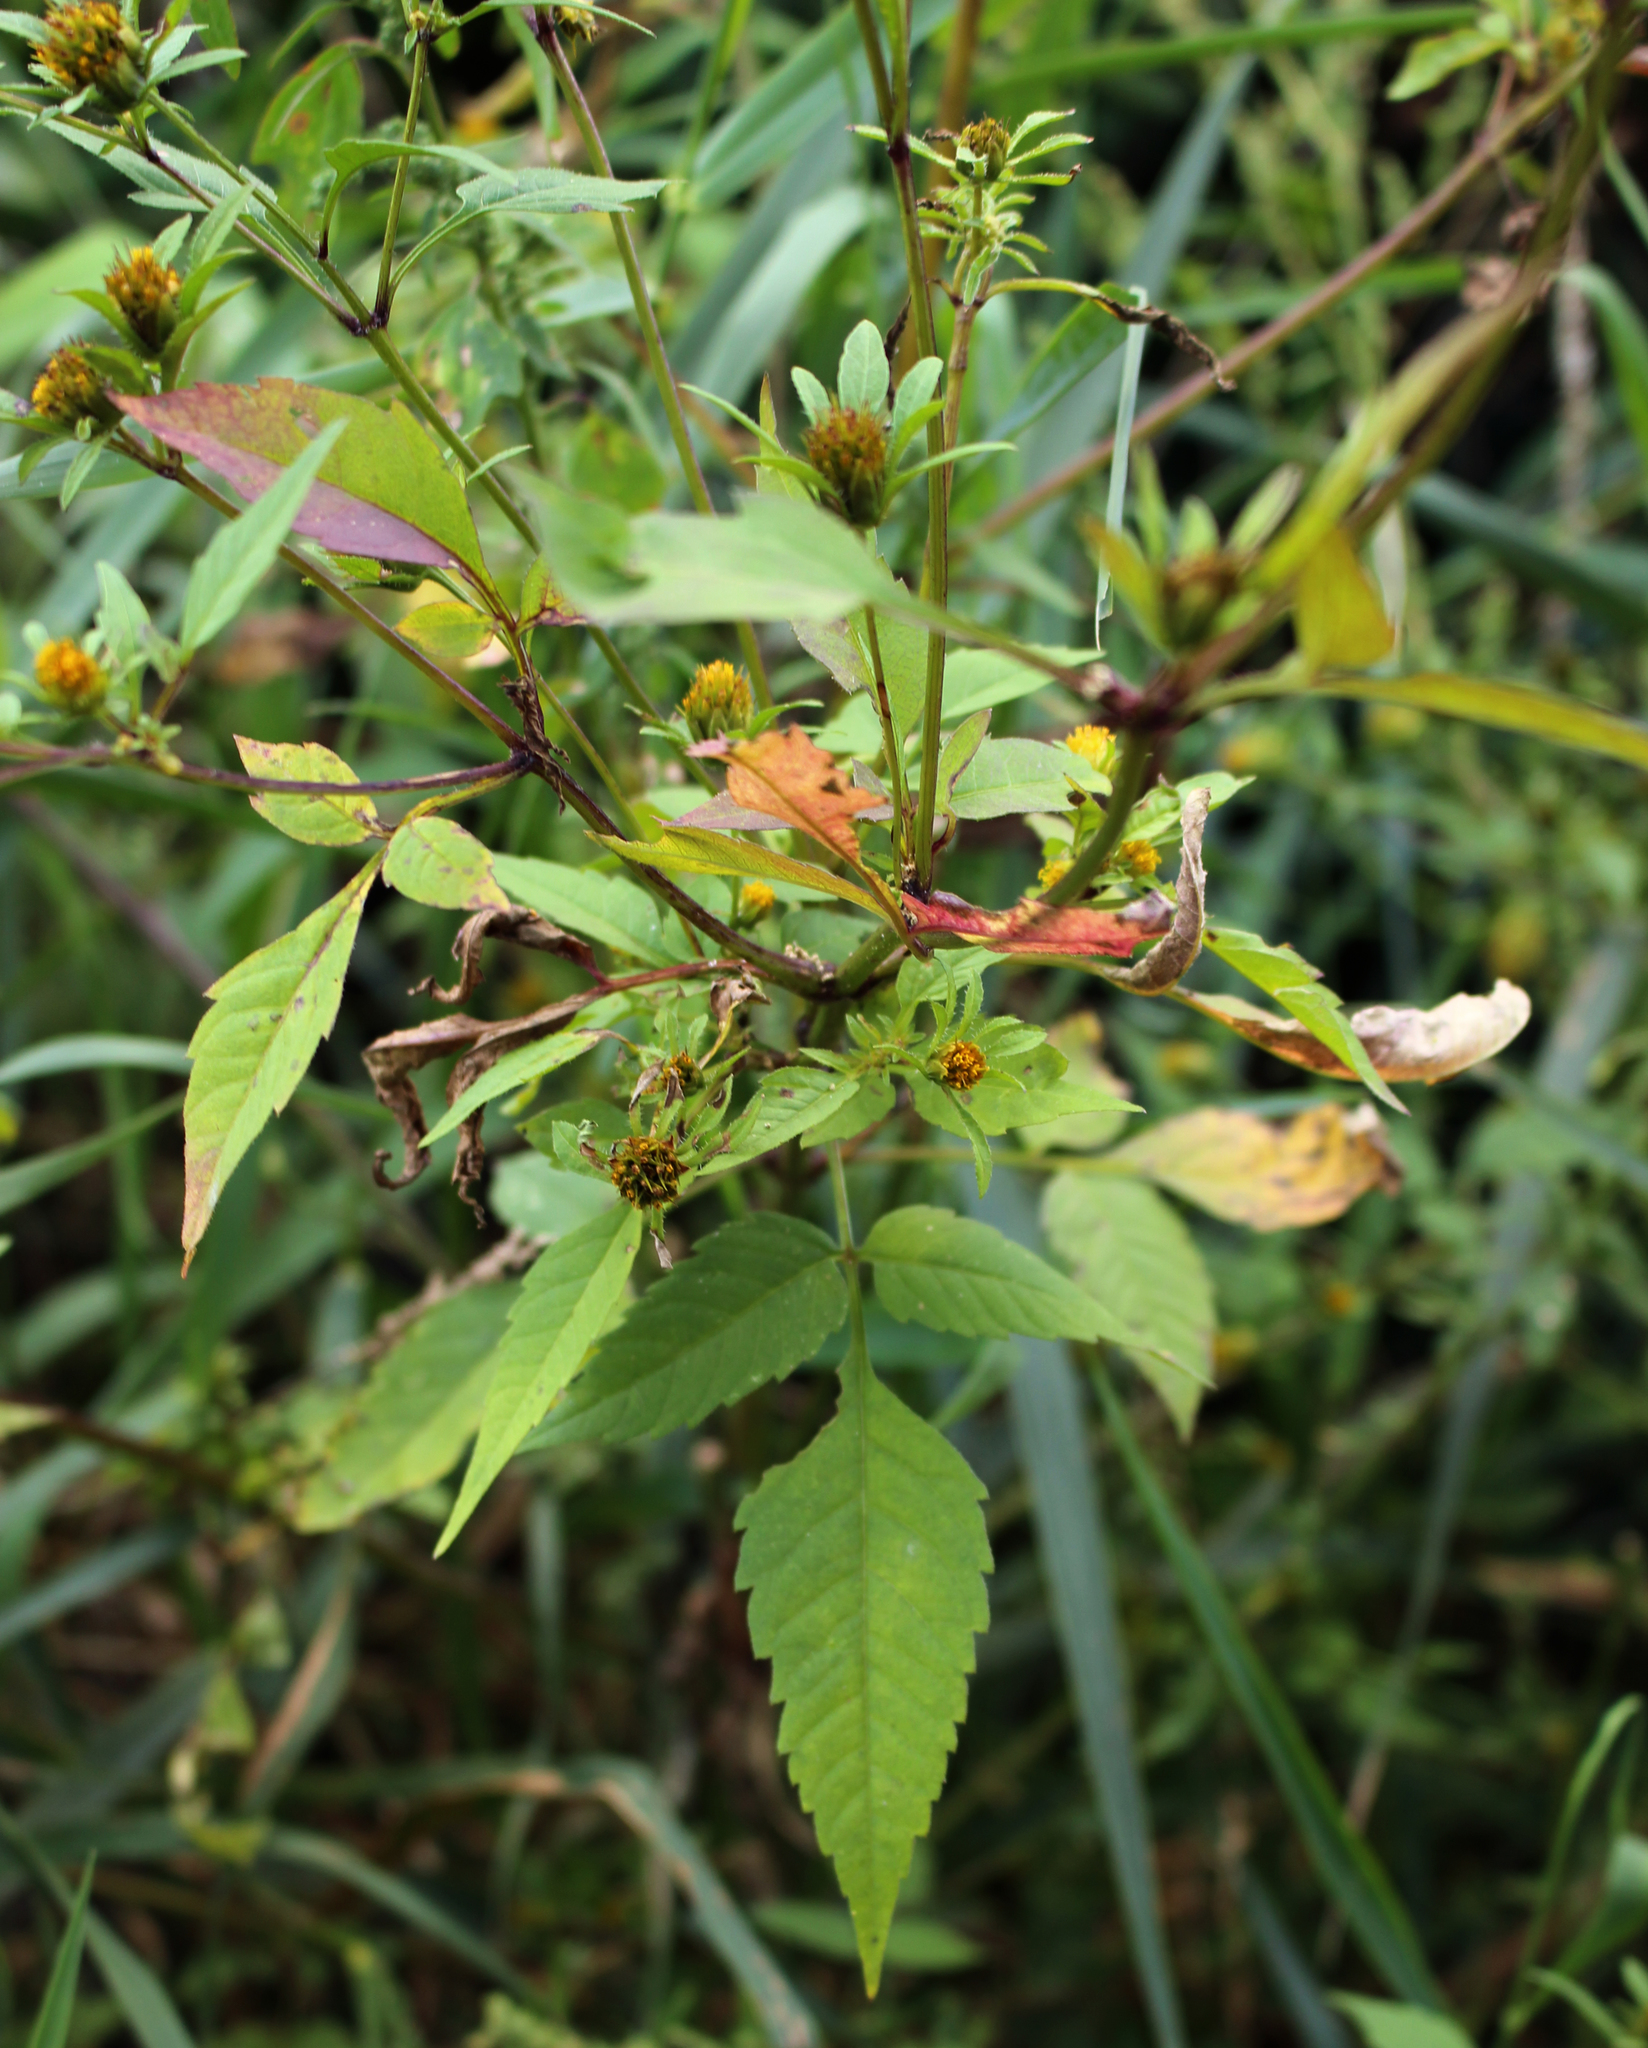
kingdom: Plantae
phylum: Tracheophyta
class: Magnoliopsida
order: Asterales
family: Asteraceae
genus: Bidens
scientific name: Bidens frondosa
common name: Beggarticks
